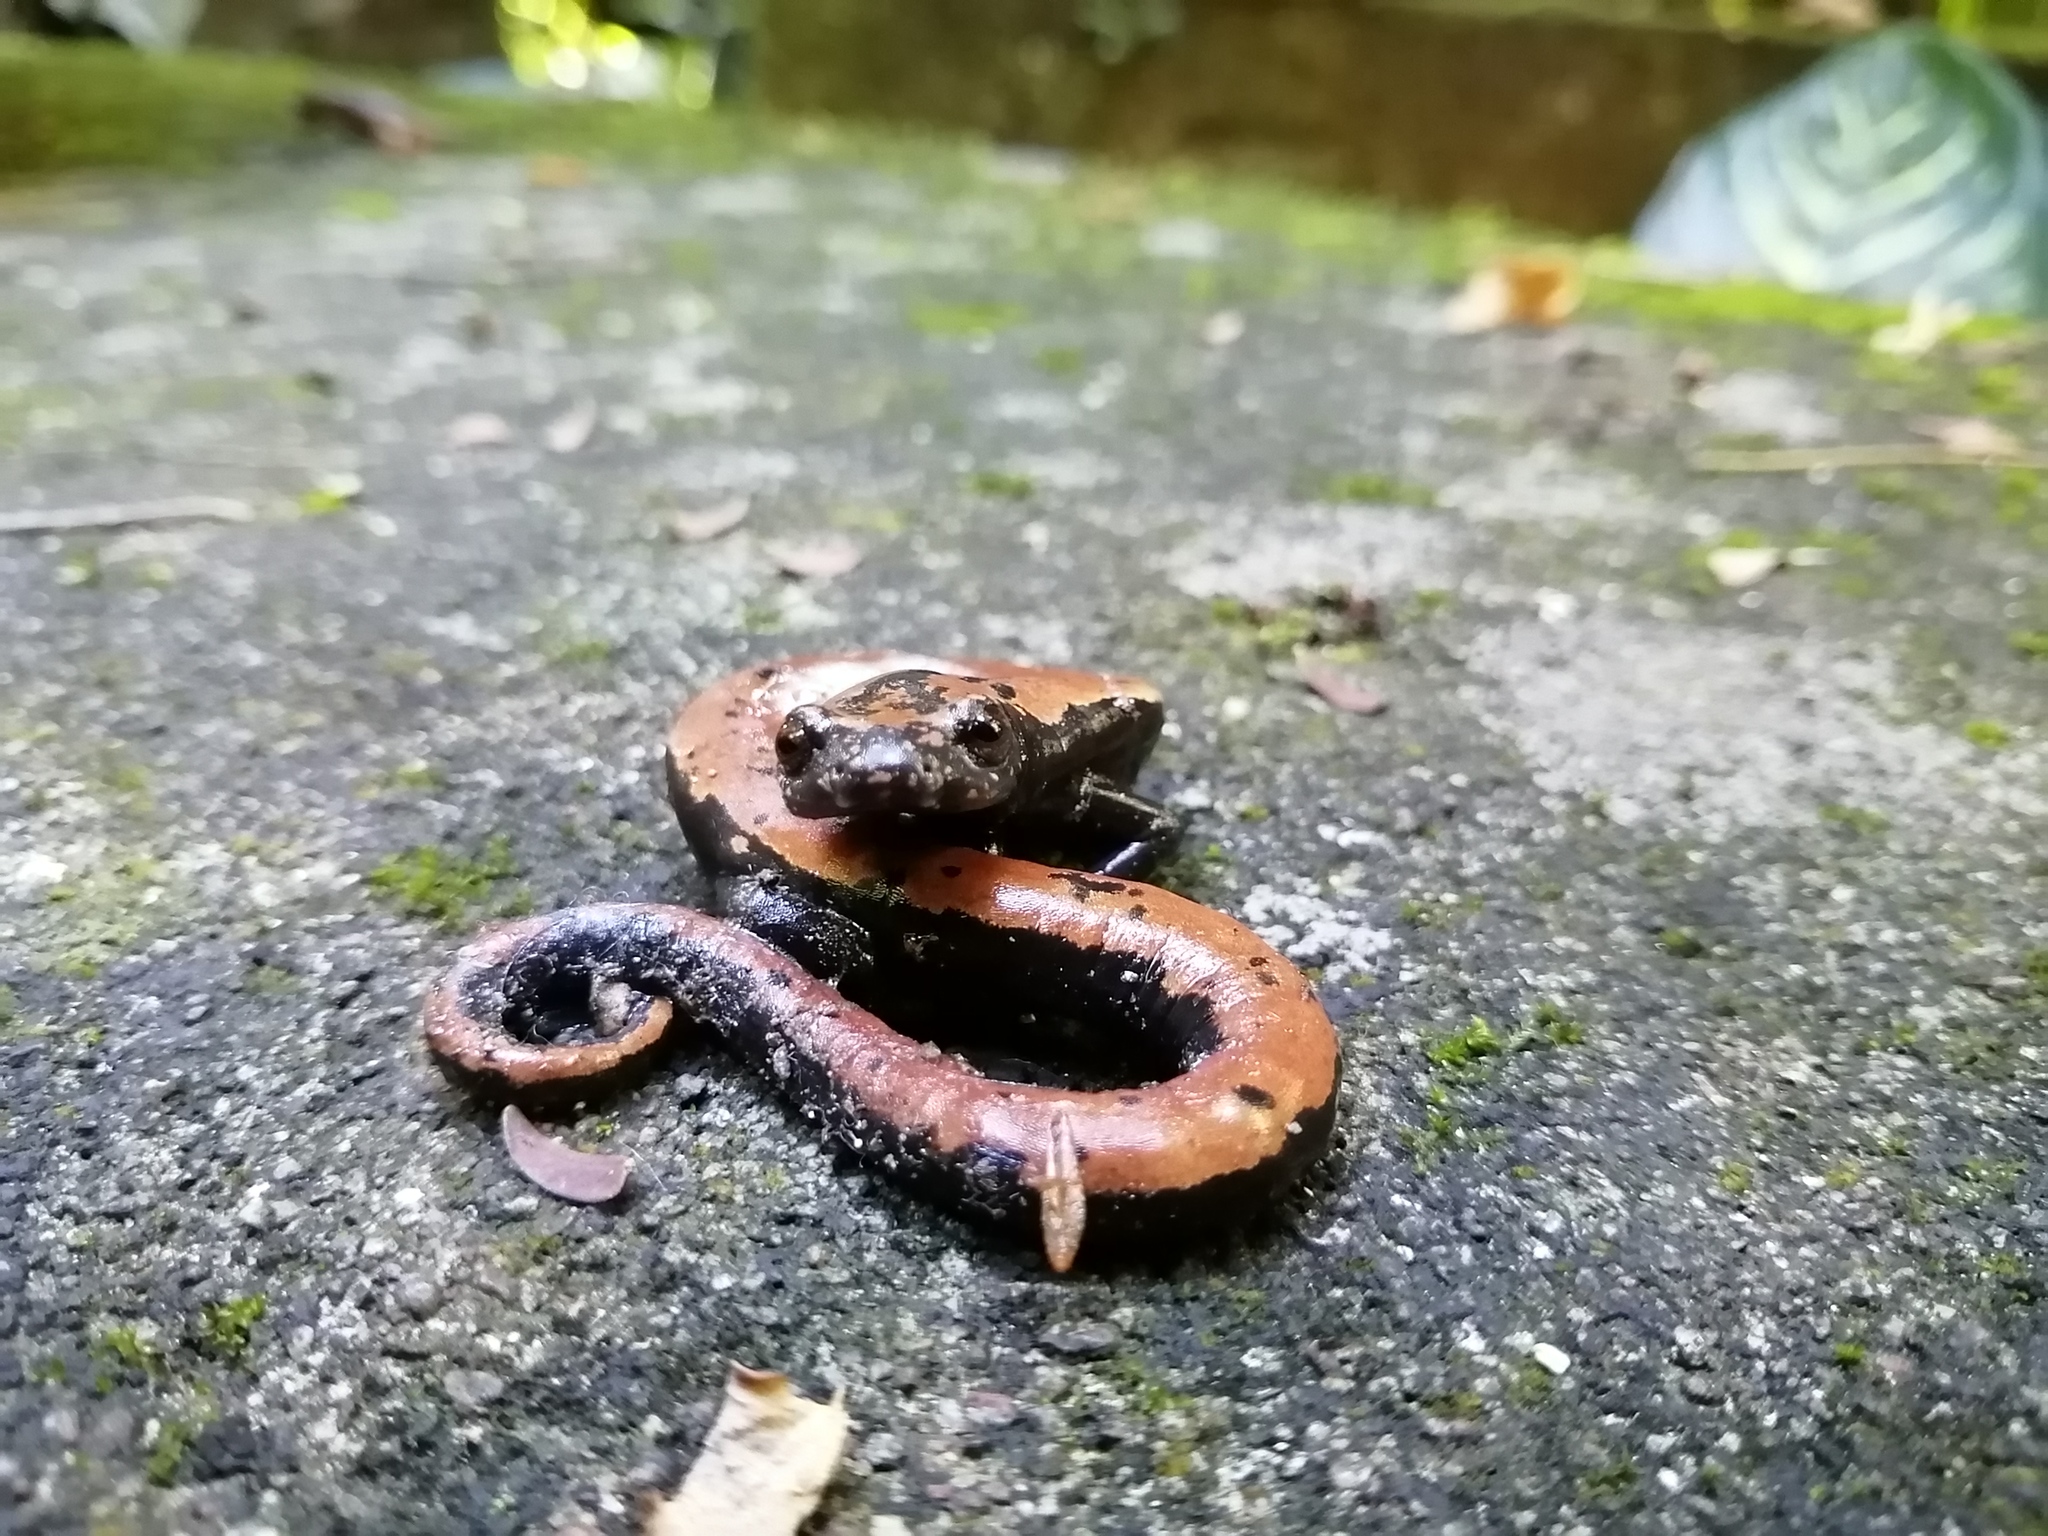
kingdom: Animalia
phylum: Chordata
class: Amphibia
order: Caudata
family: Plethodontidae
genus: Bolitoglossa
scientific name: Bolitoglossa platydactyla
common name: Broad-footed salamander
